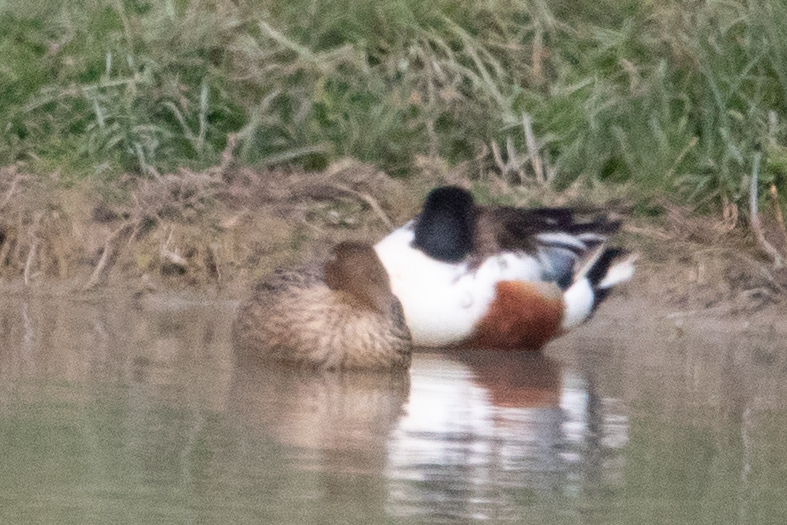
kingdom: Animalia
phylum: Chordata
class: Aves
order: Anseriformes
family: Anatidae
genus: Spatula
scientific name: Spatula clypeata
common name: Northern shoveler
